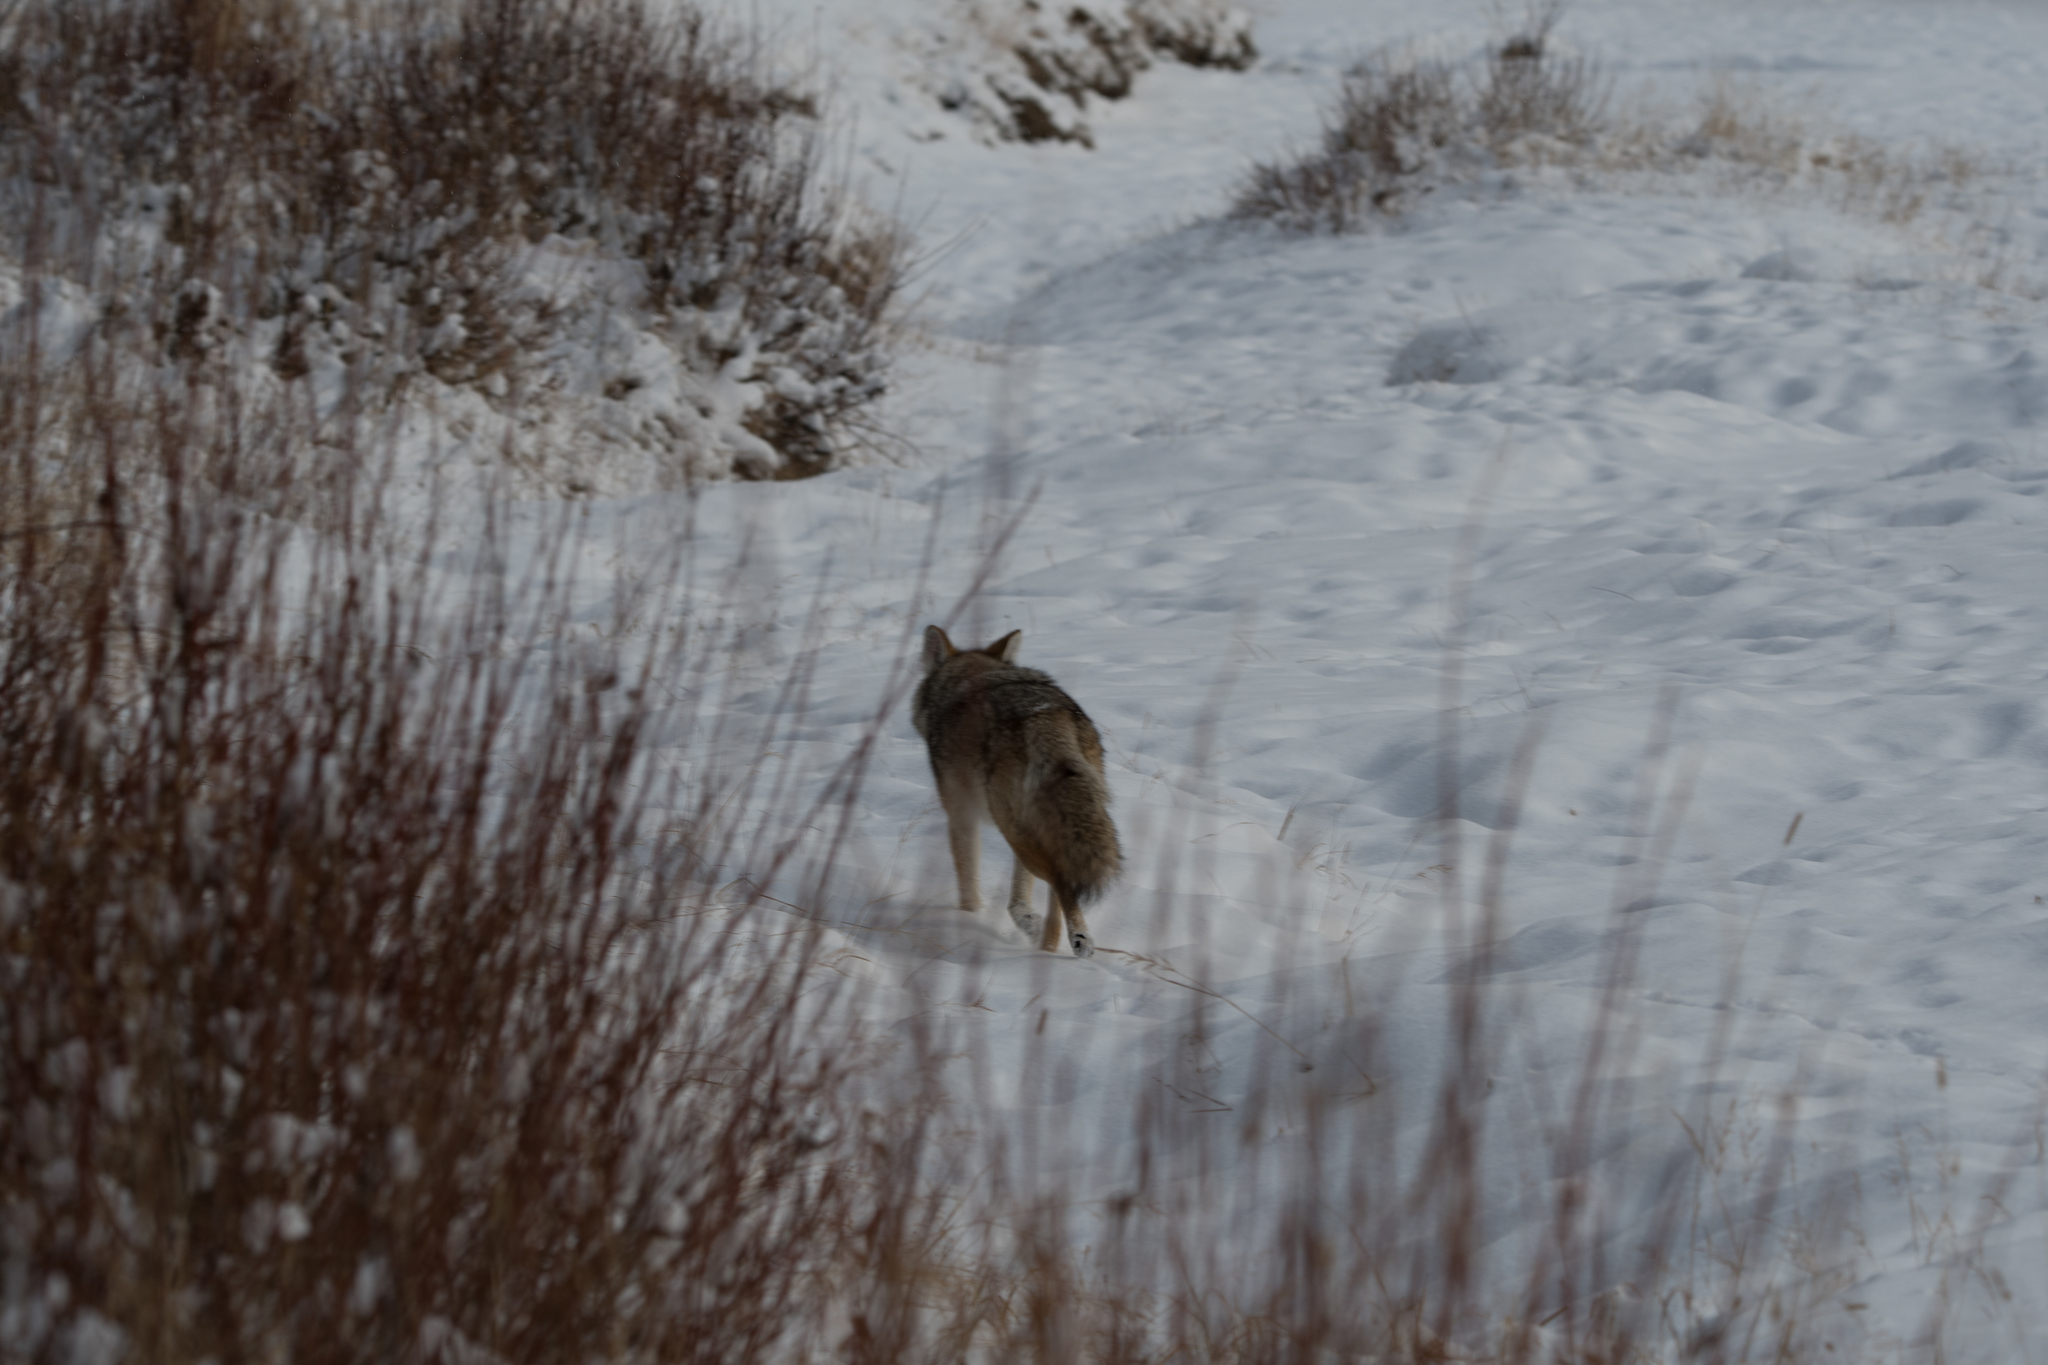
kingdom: Animalia
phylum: Chordata
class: Mammalia
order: Carnivora
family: Canidae
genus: Canis
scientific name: Canis latrans
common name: Coyote
